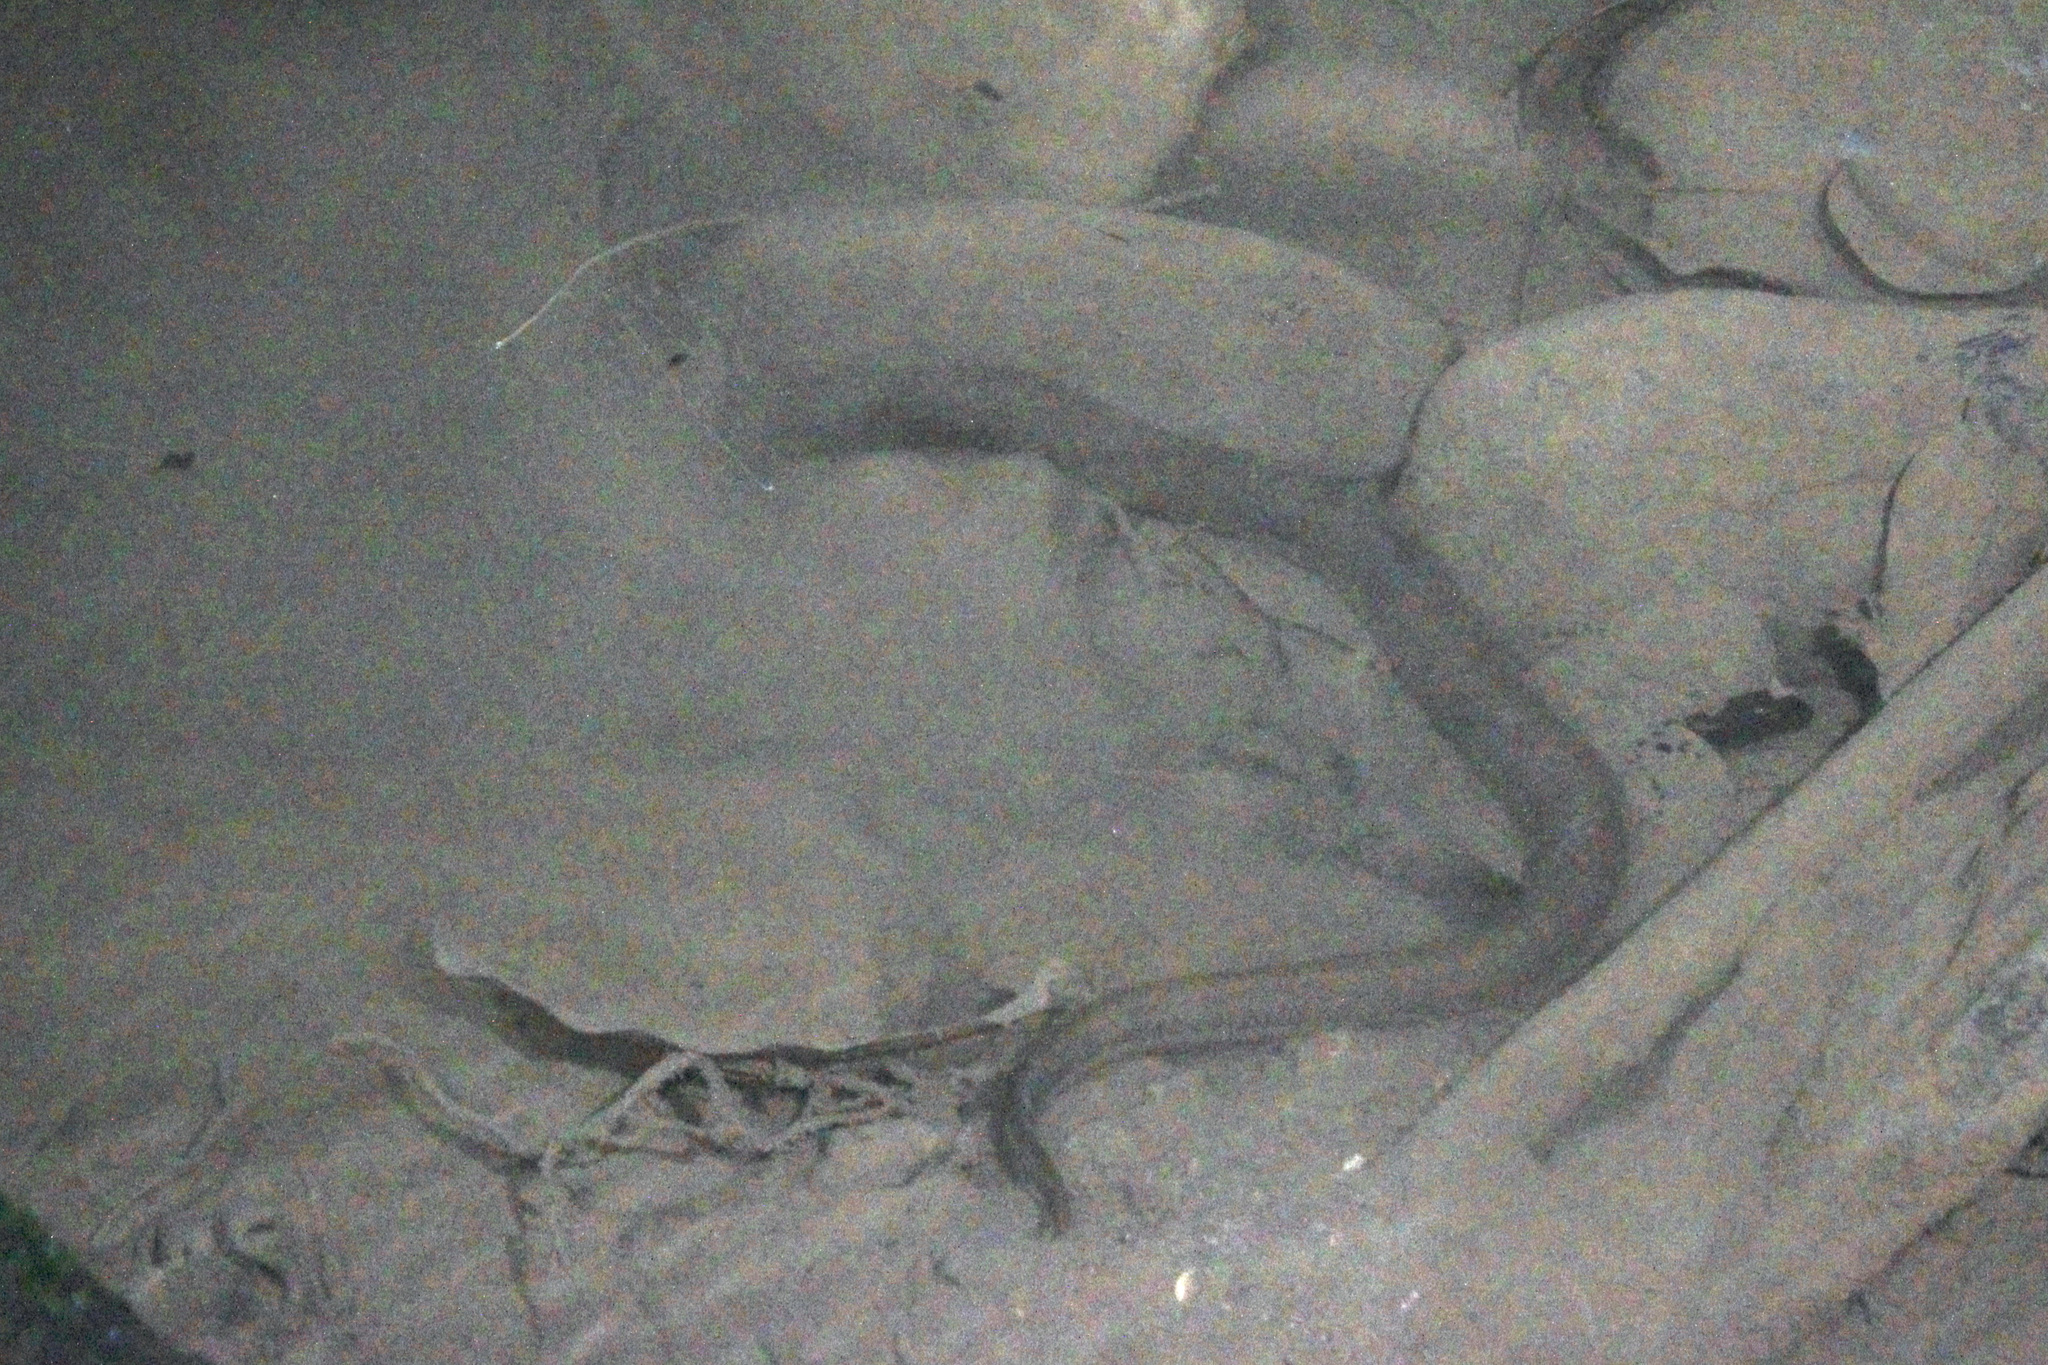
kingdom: Animalia
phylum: Chordata
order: Synbranchiformes
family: Synbranchidae
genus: Synbranchus
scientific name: Synbranchus marmoratus
